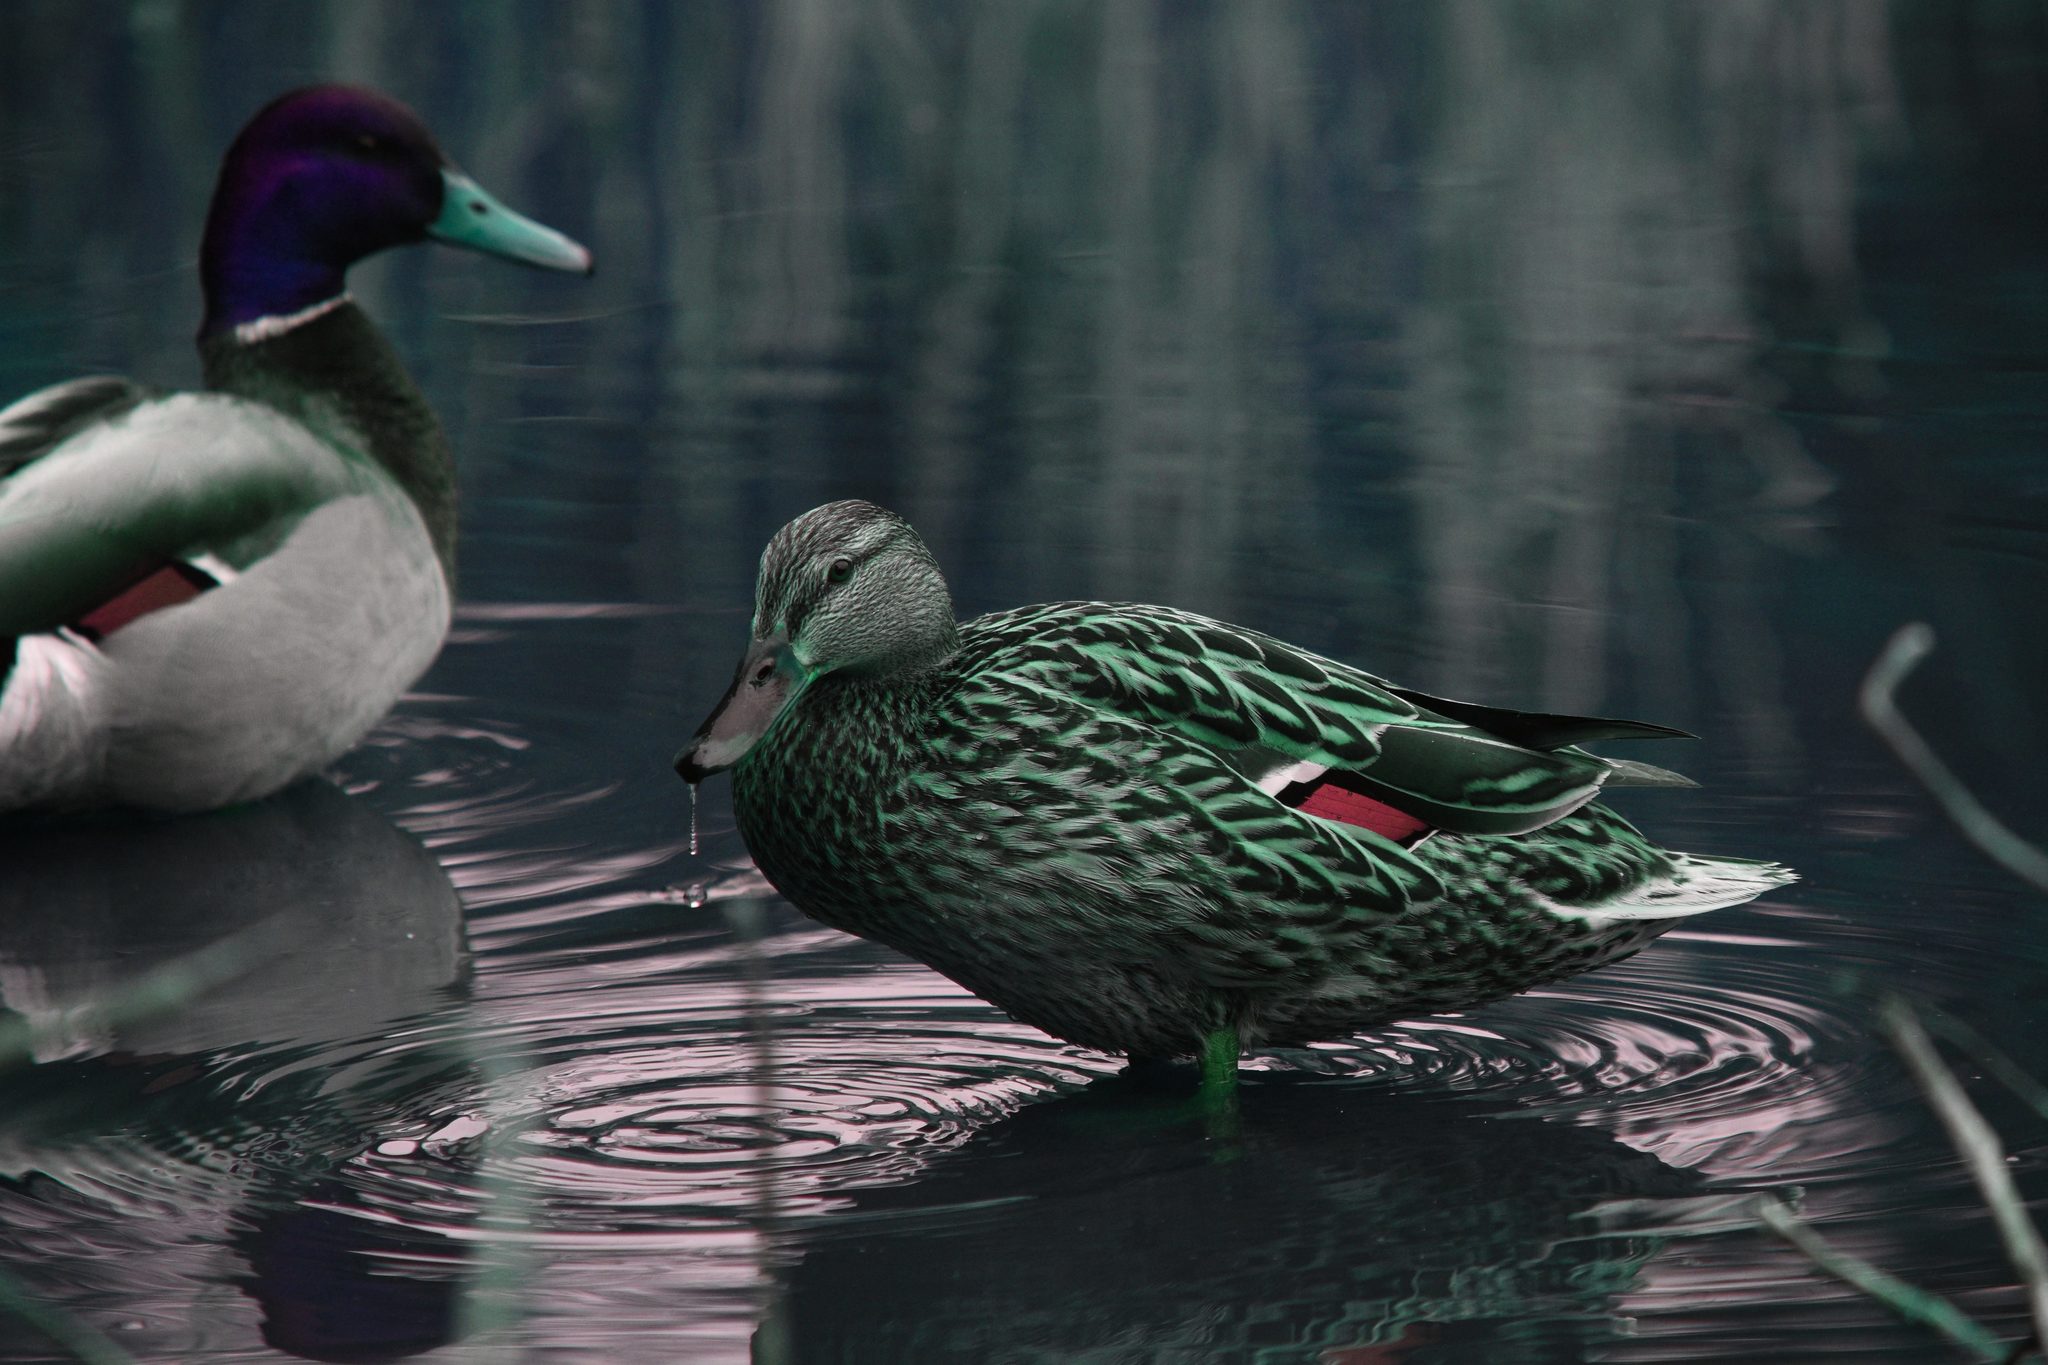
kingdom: Animalia
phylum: Chordata
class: Aves
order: Anseriformes
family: Anatidae
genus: Anas
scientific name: Anas platyrhynchos
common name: Mallard
